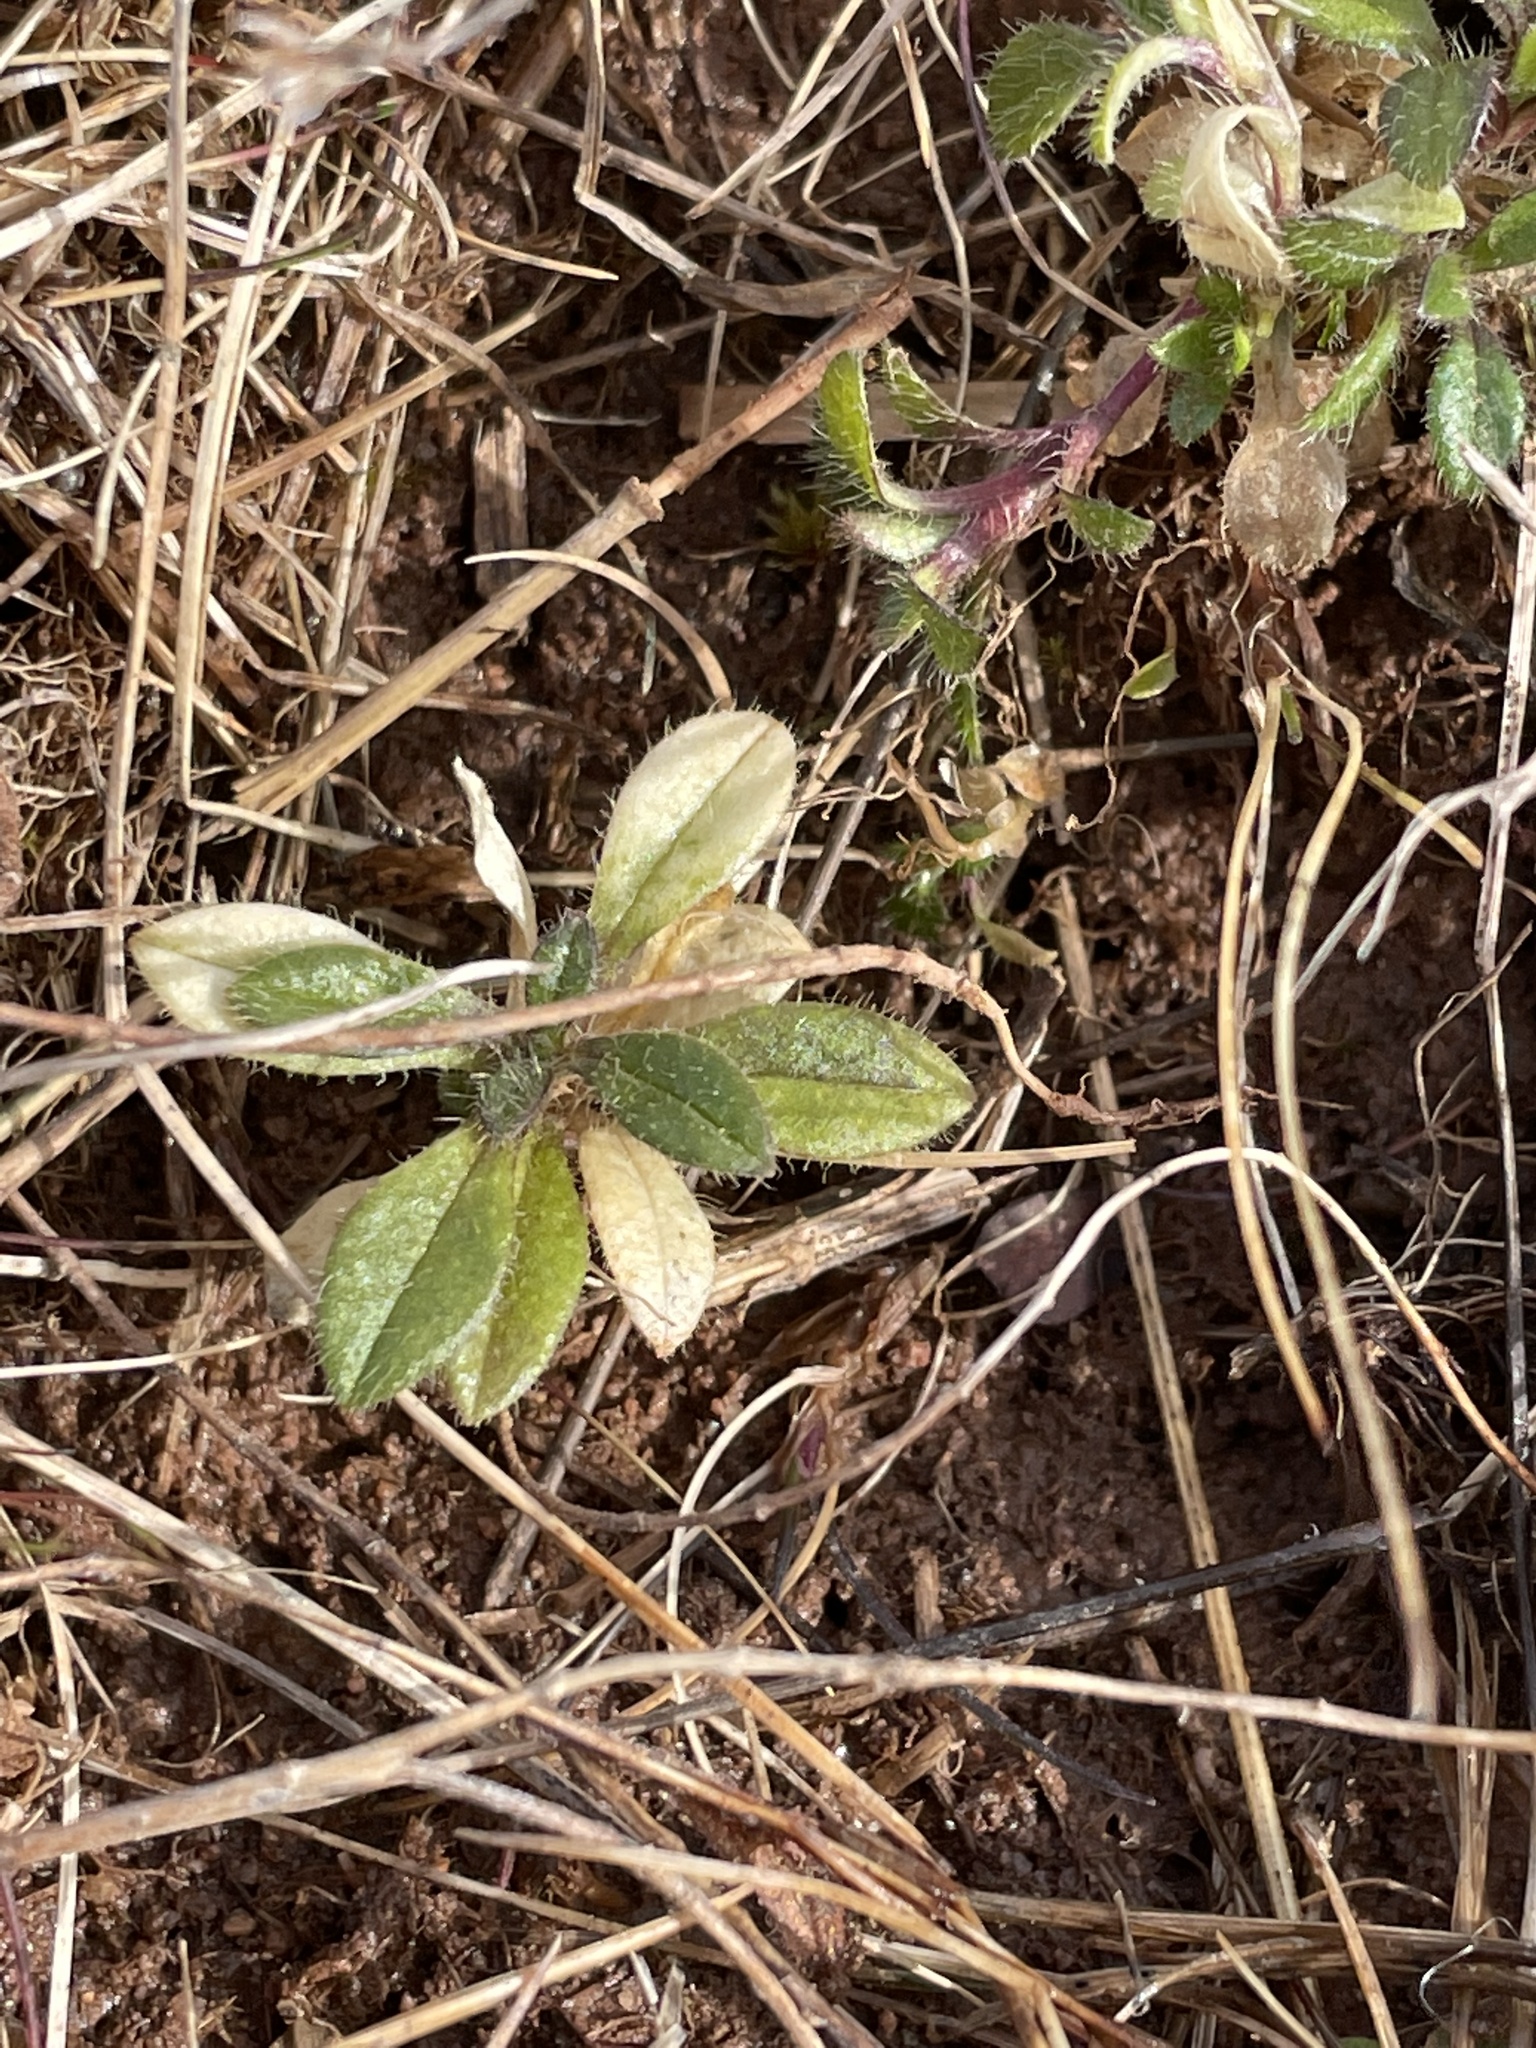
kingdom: Plantae
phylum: Tracheophyta
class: Magnoliopsida
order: Caryophyllales
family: Caryophyllaceae
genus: Cerastium
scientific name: Cerastium fontanum
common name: Common mouse-ear
